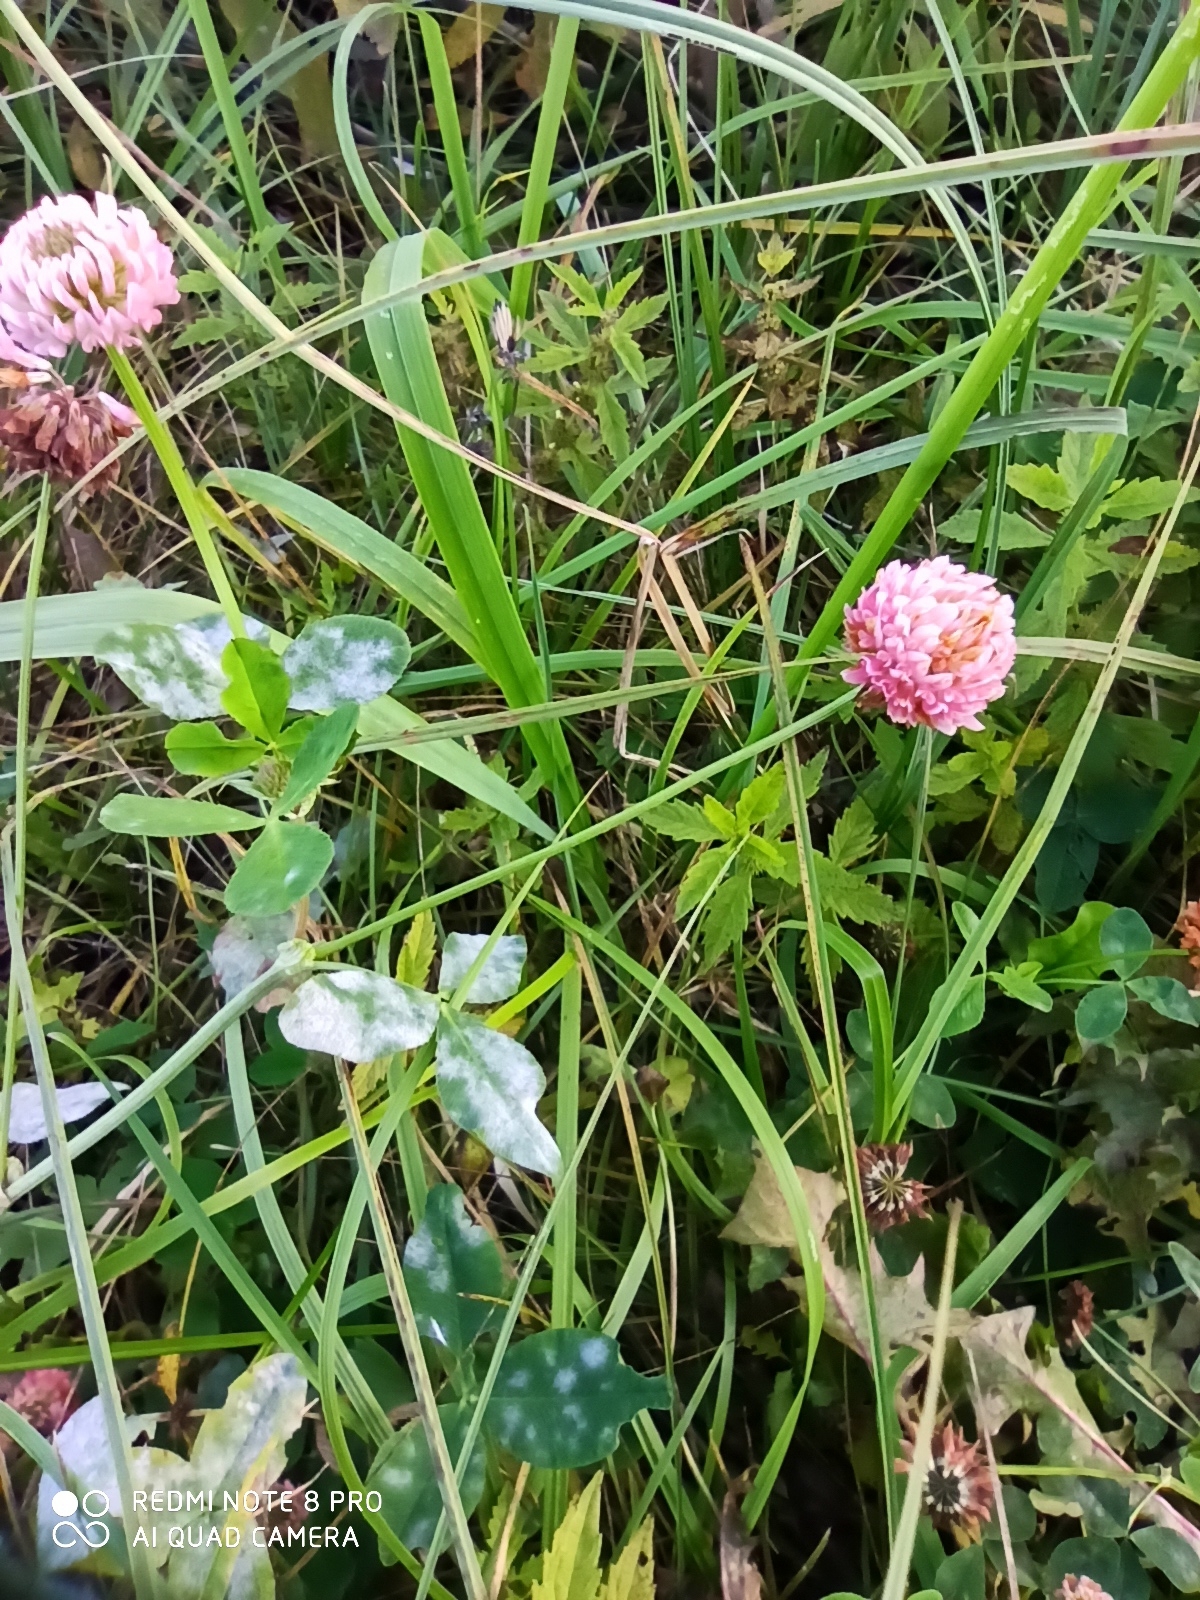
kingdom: Plantae
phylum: Tracheophyta
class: Magnoliopsida
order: Fabales
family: Fabaceae
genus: Trifolium
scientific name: Trifolium hybridum
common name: Alsike clover
